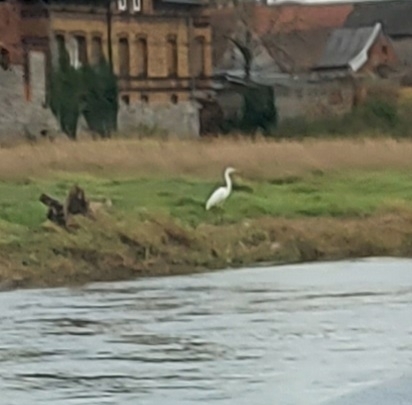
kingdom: Animalia
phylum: Chordata
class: Aves
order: Pelecaniformes
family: Ardeidae
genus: Ardea
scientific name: Ardea alba
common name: Great egret
